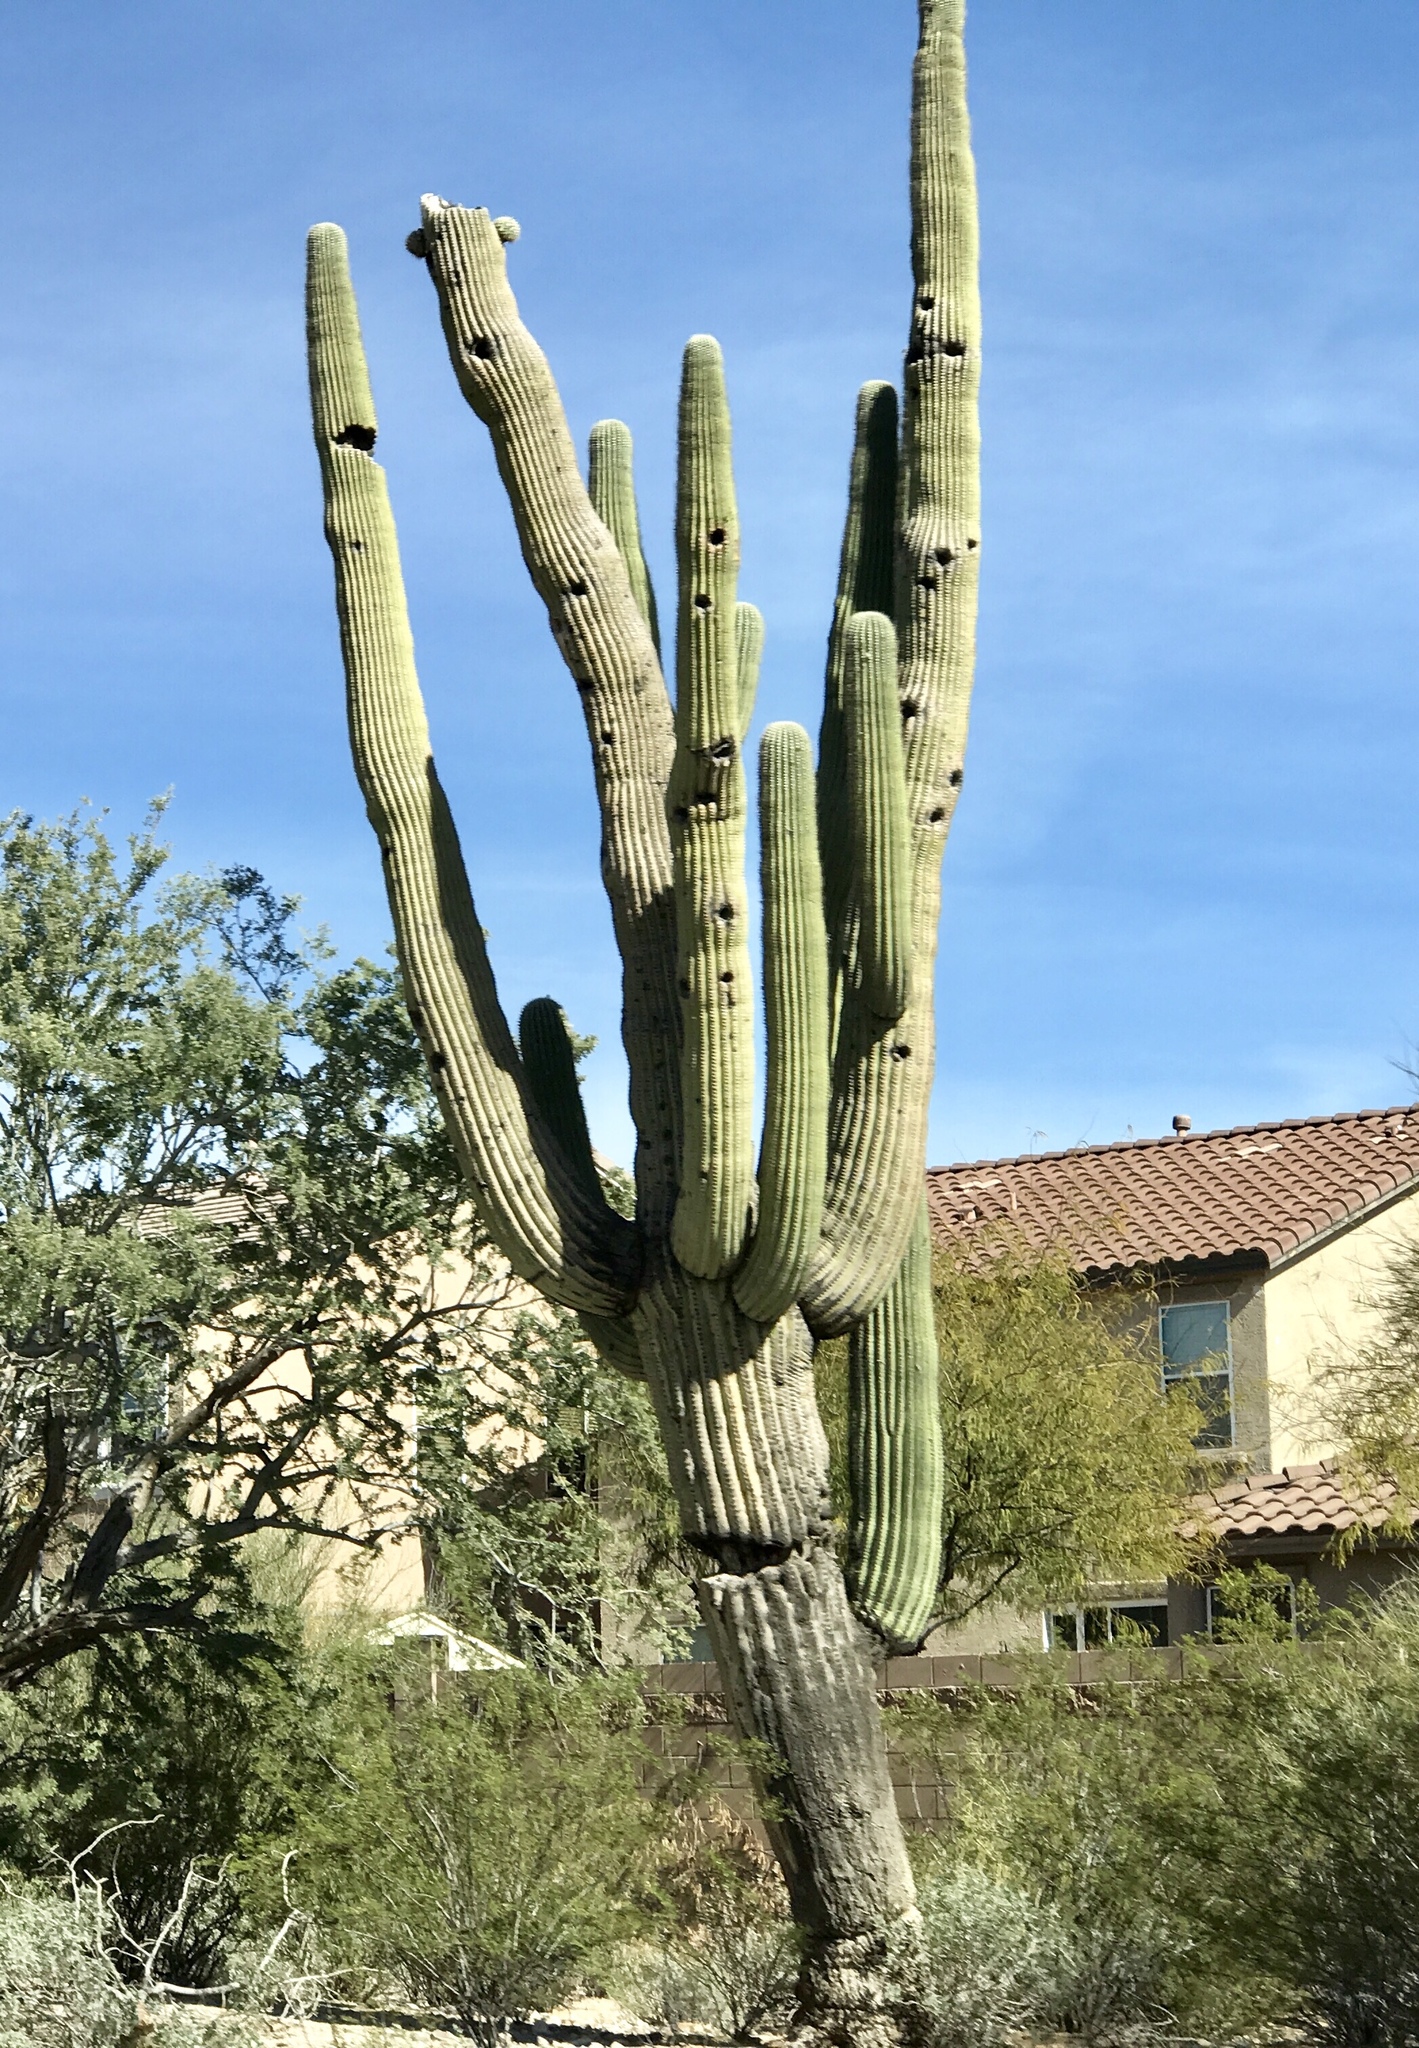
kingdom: Plantae
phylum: Tracheophyta
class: Magnoliopsida
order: Caryophyllales
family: Cactaceae
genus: Carnegiea
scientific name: Carnegiea gigantea
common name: Saguaro
